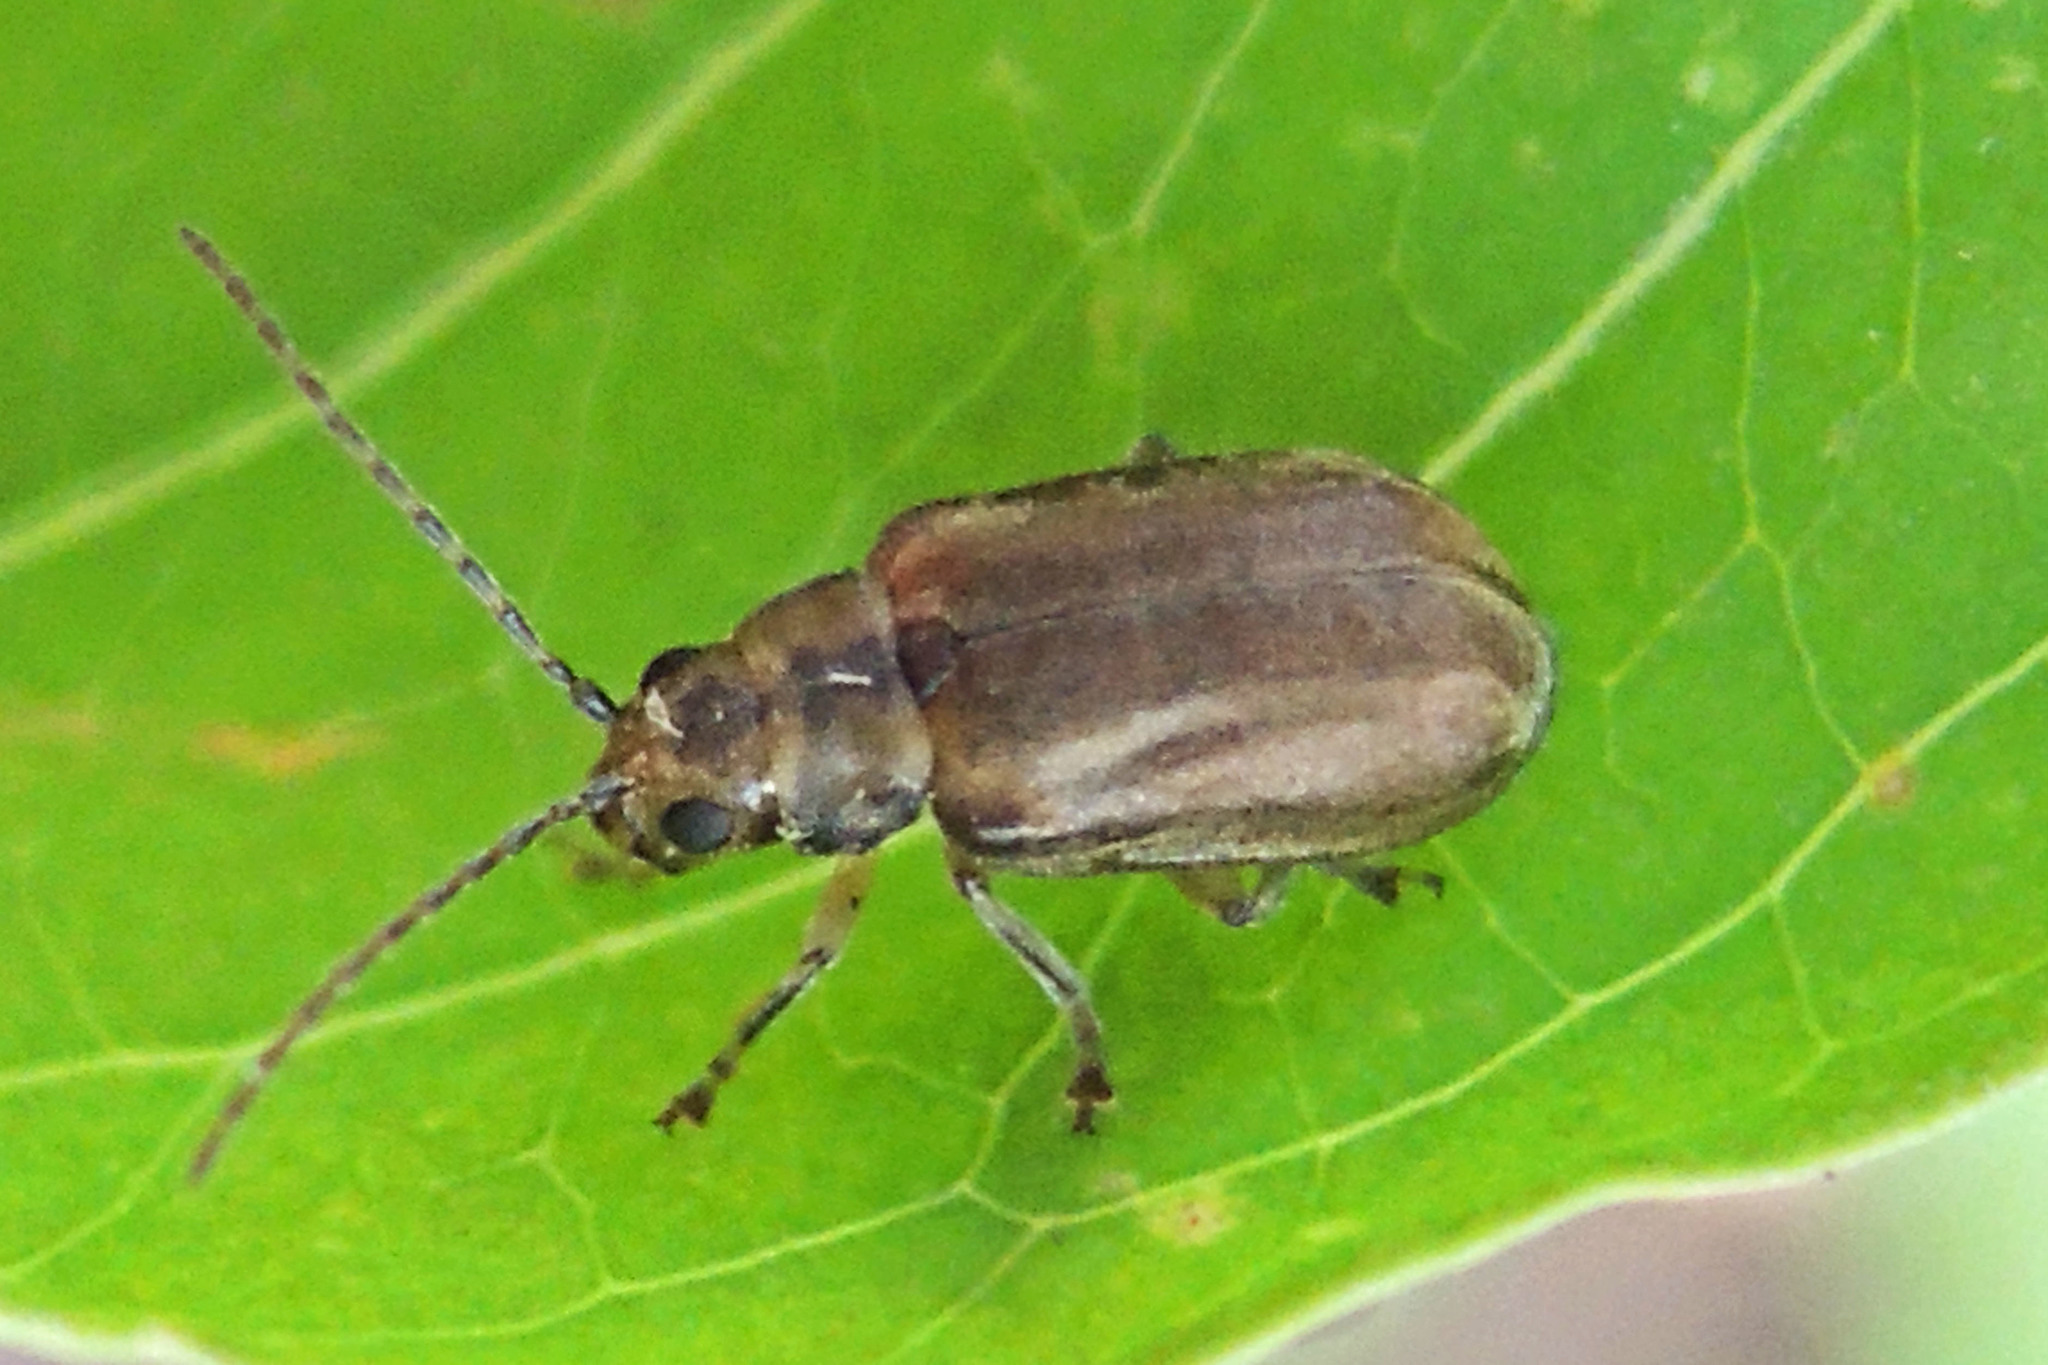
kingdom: Animalia
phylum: Arthropoda
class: Insecta
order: Coleoptera
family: Chrysomelidae
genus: Pyrrhalta
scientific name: Pyrrhalta viburni
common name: Guelder-rose leaf beetle
